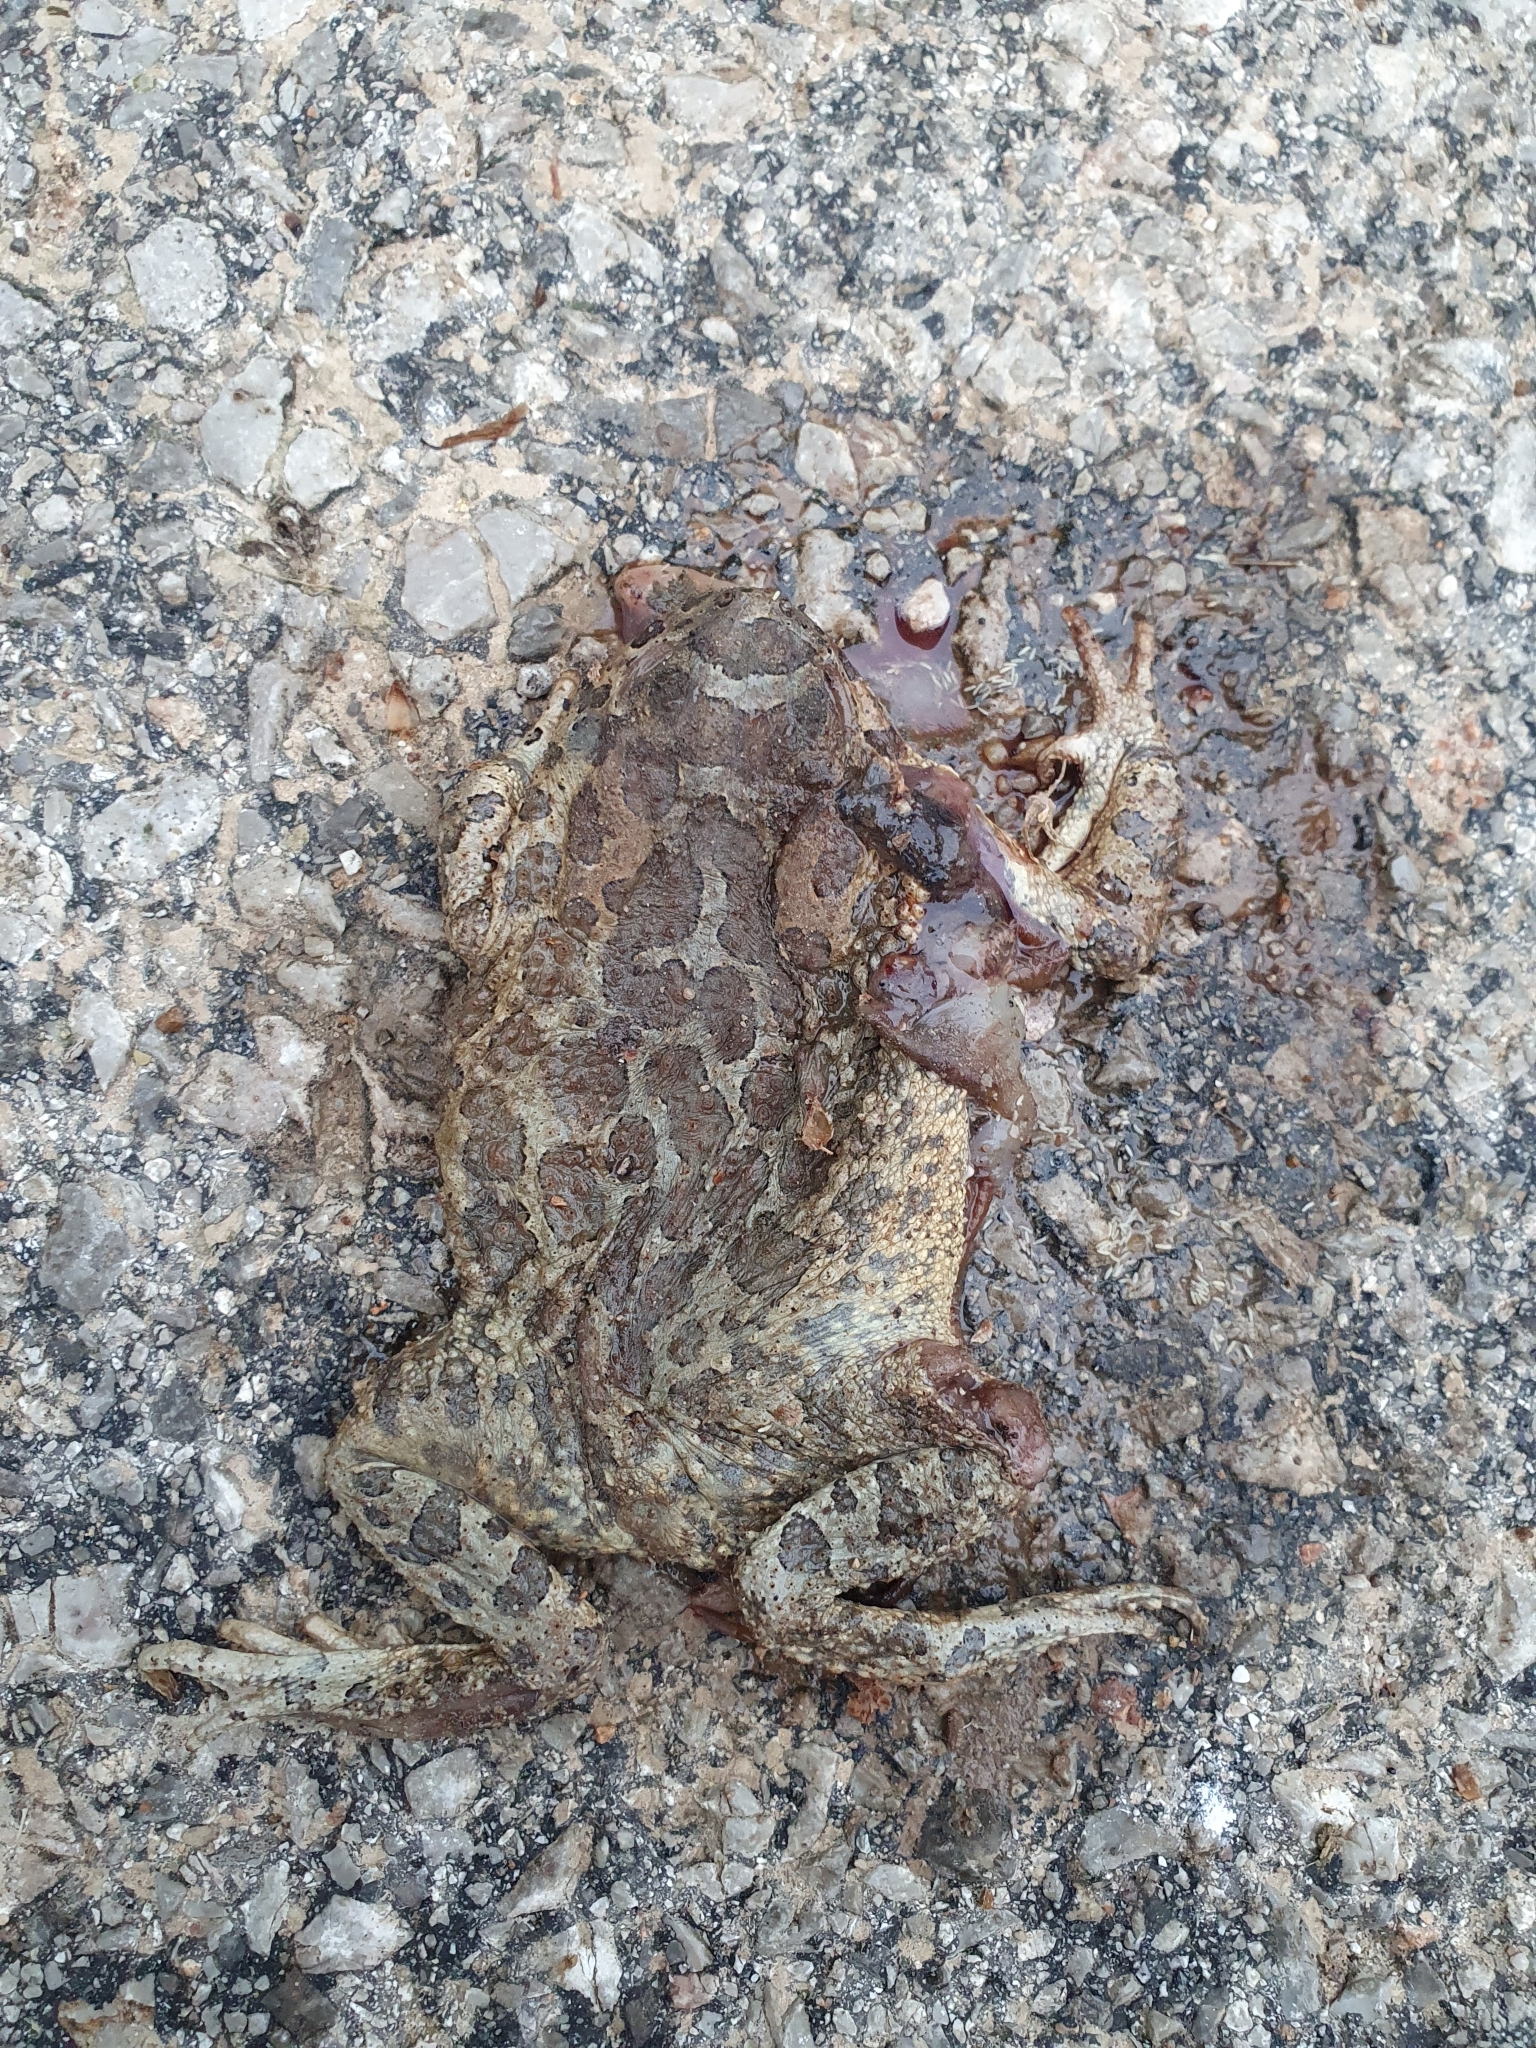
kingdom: Animalia
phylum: Chordata
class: Amphibia
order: Anura
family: Bufonidae
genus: Sclerophrys
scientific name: Sclerophrys mauritanica
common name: Berber toad
